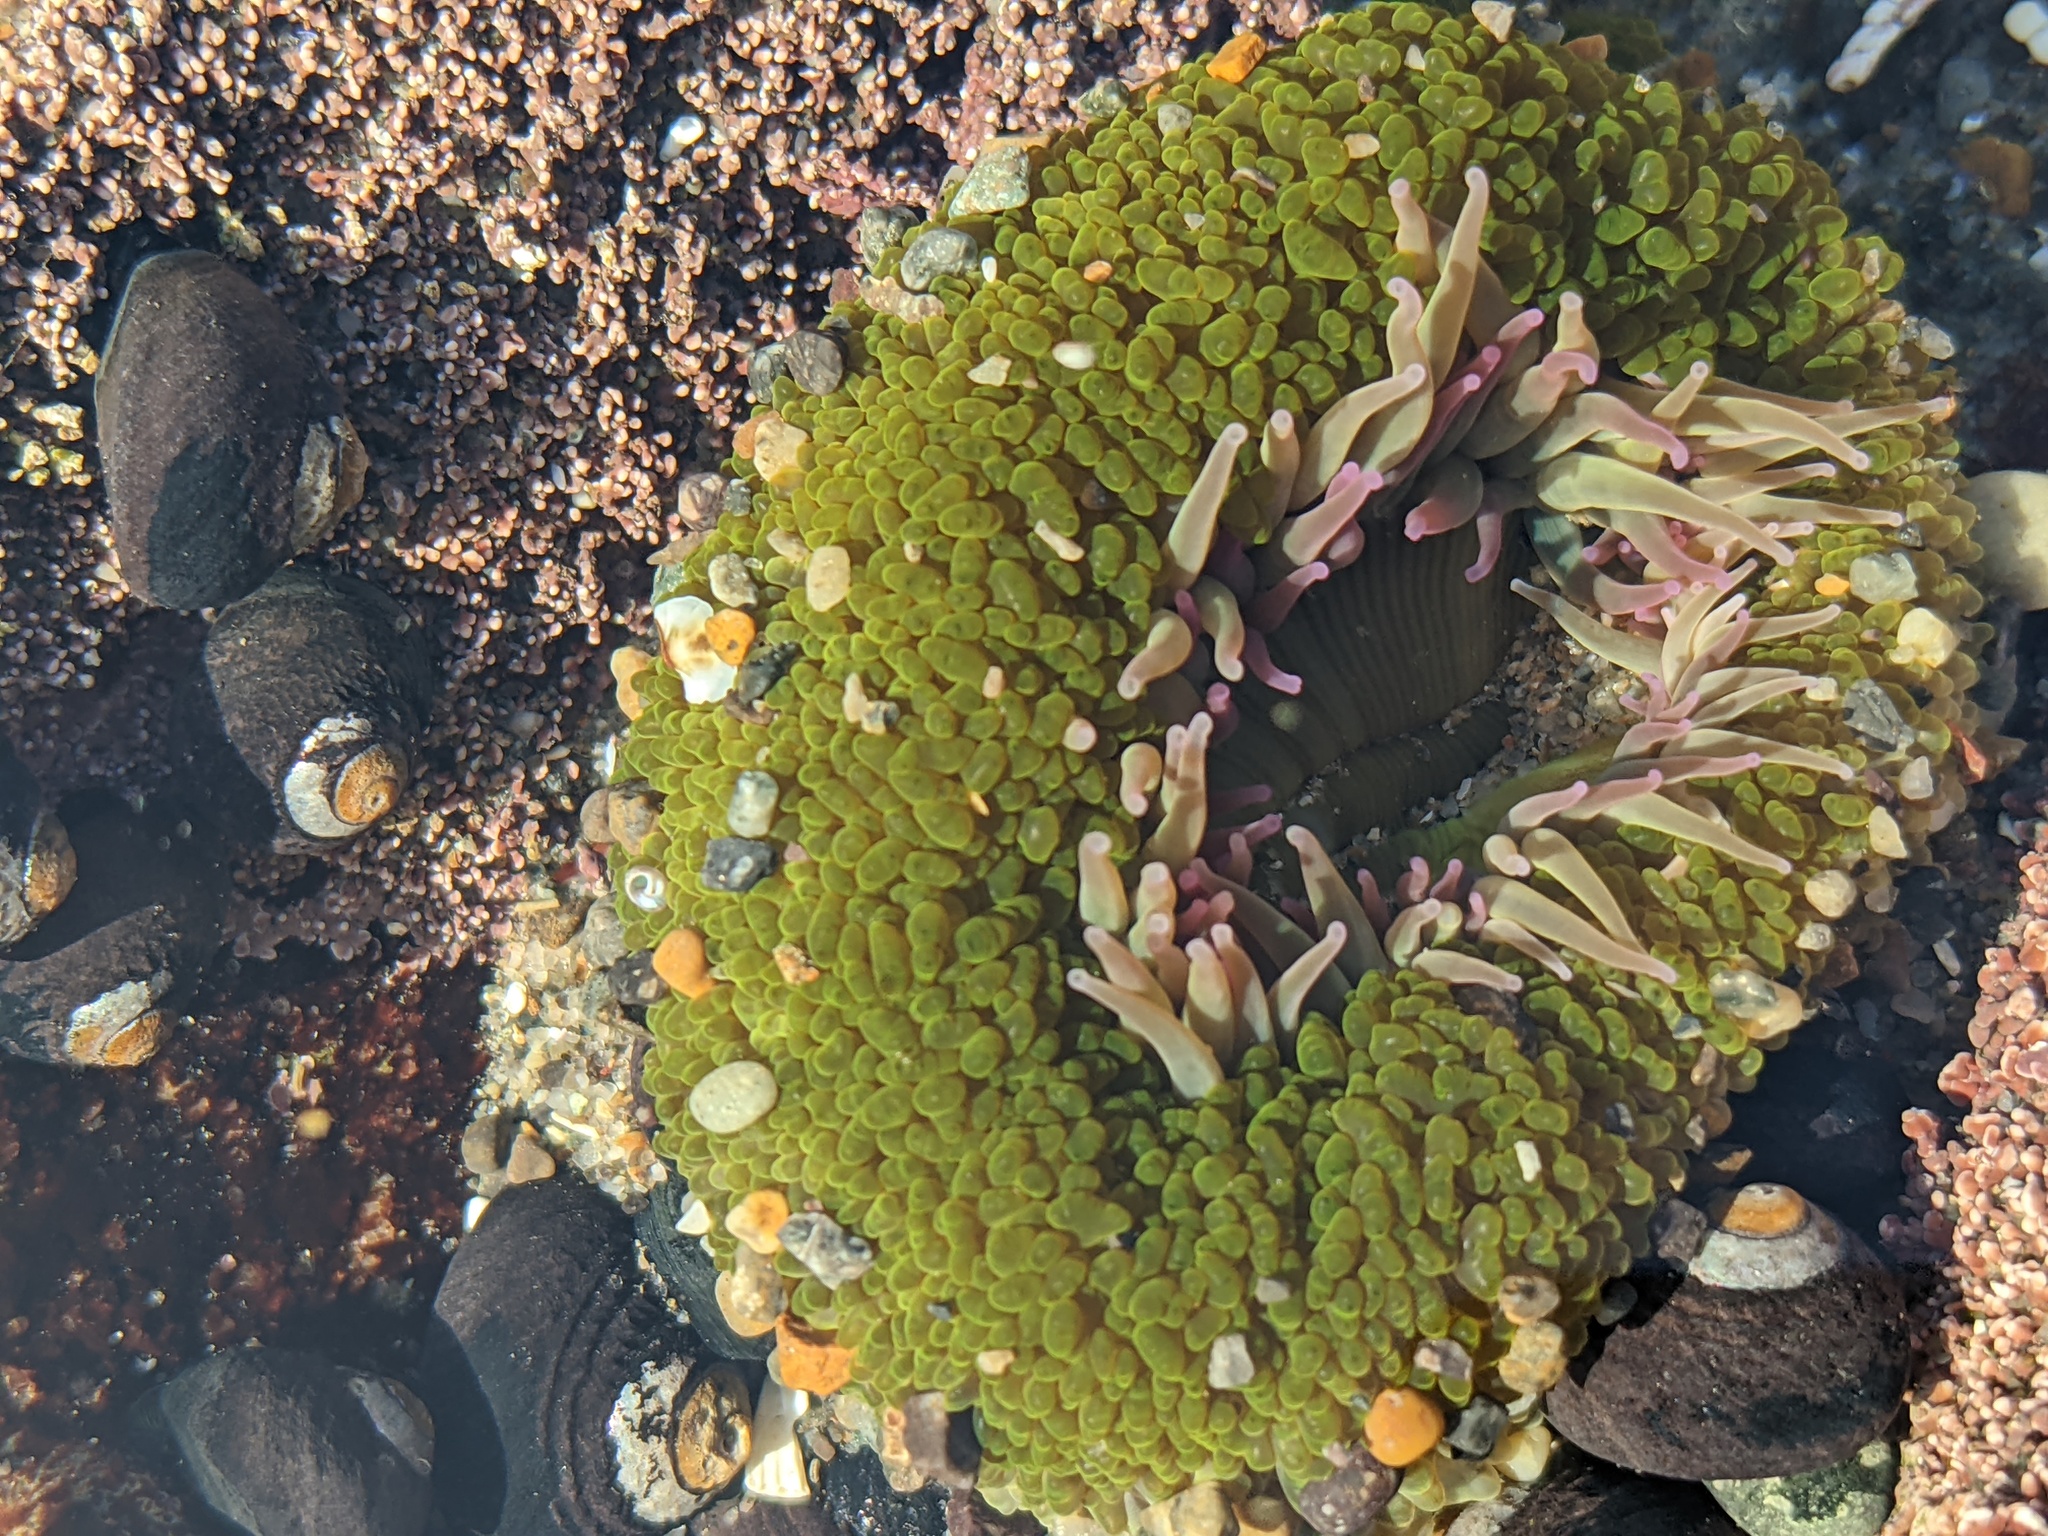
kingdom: Animalia
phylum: Cnidaria
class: Anthozoa
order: Actiniaria
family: Actiniidae
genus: Anthopleura
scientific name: Anthopleura elegantissima
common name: Clonal anemone
